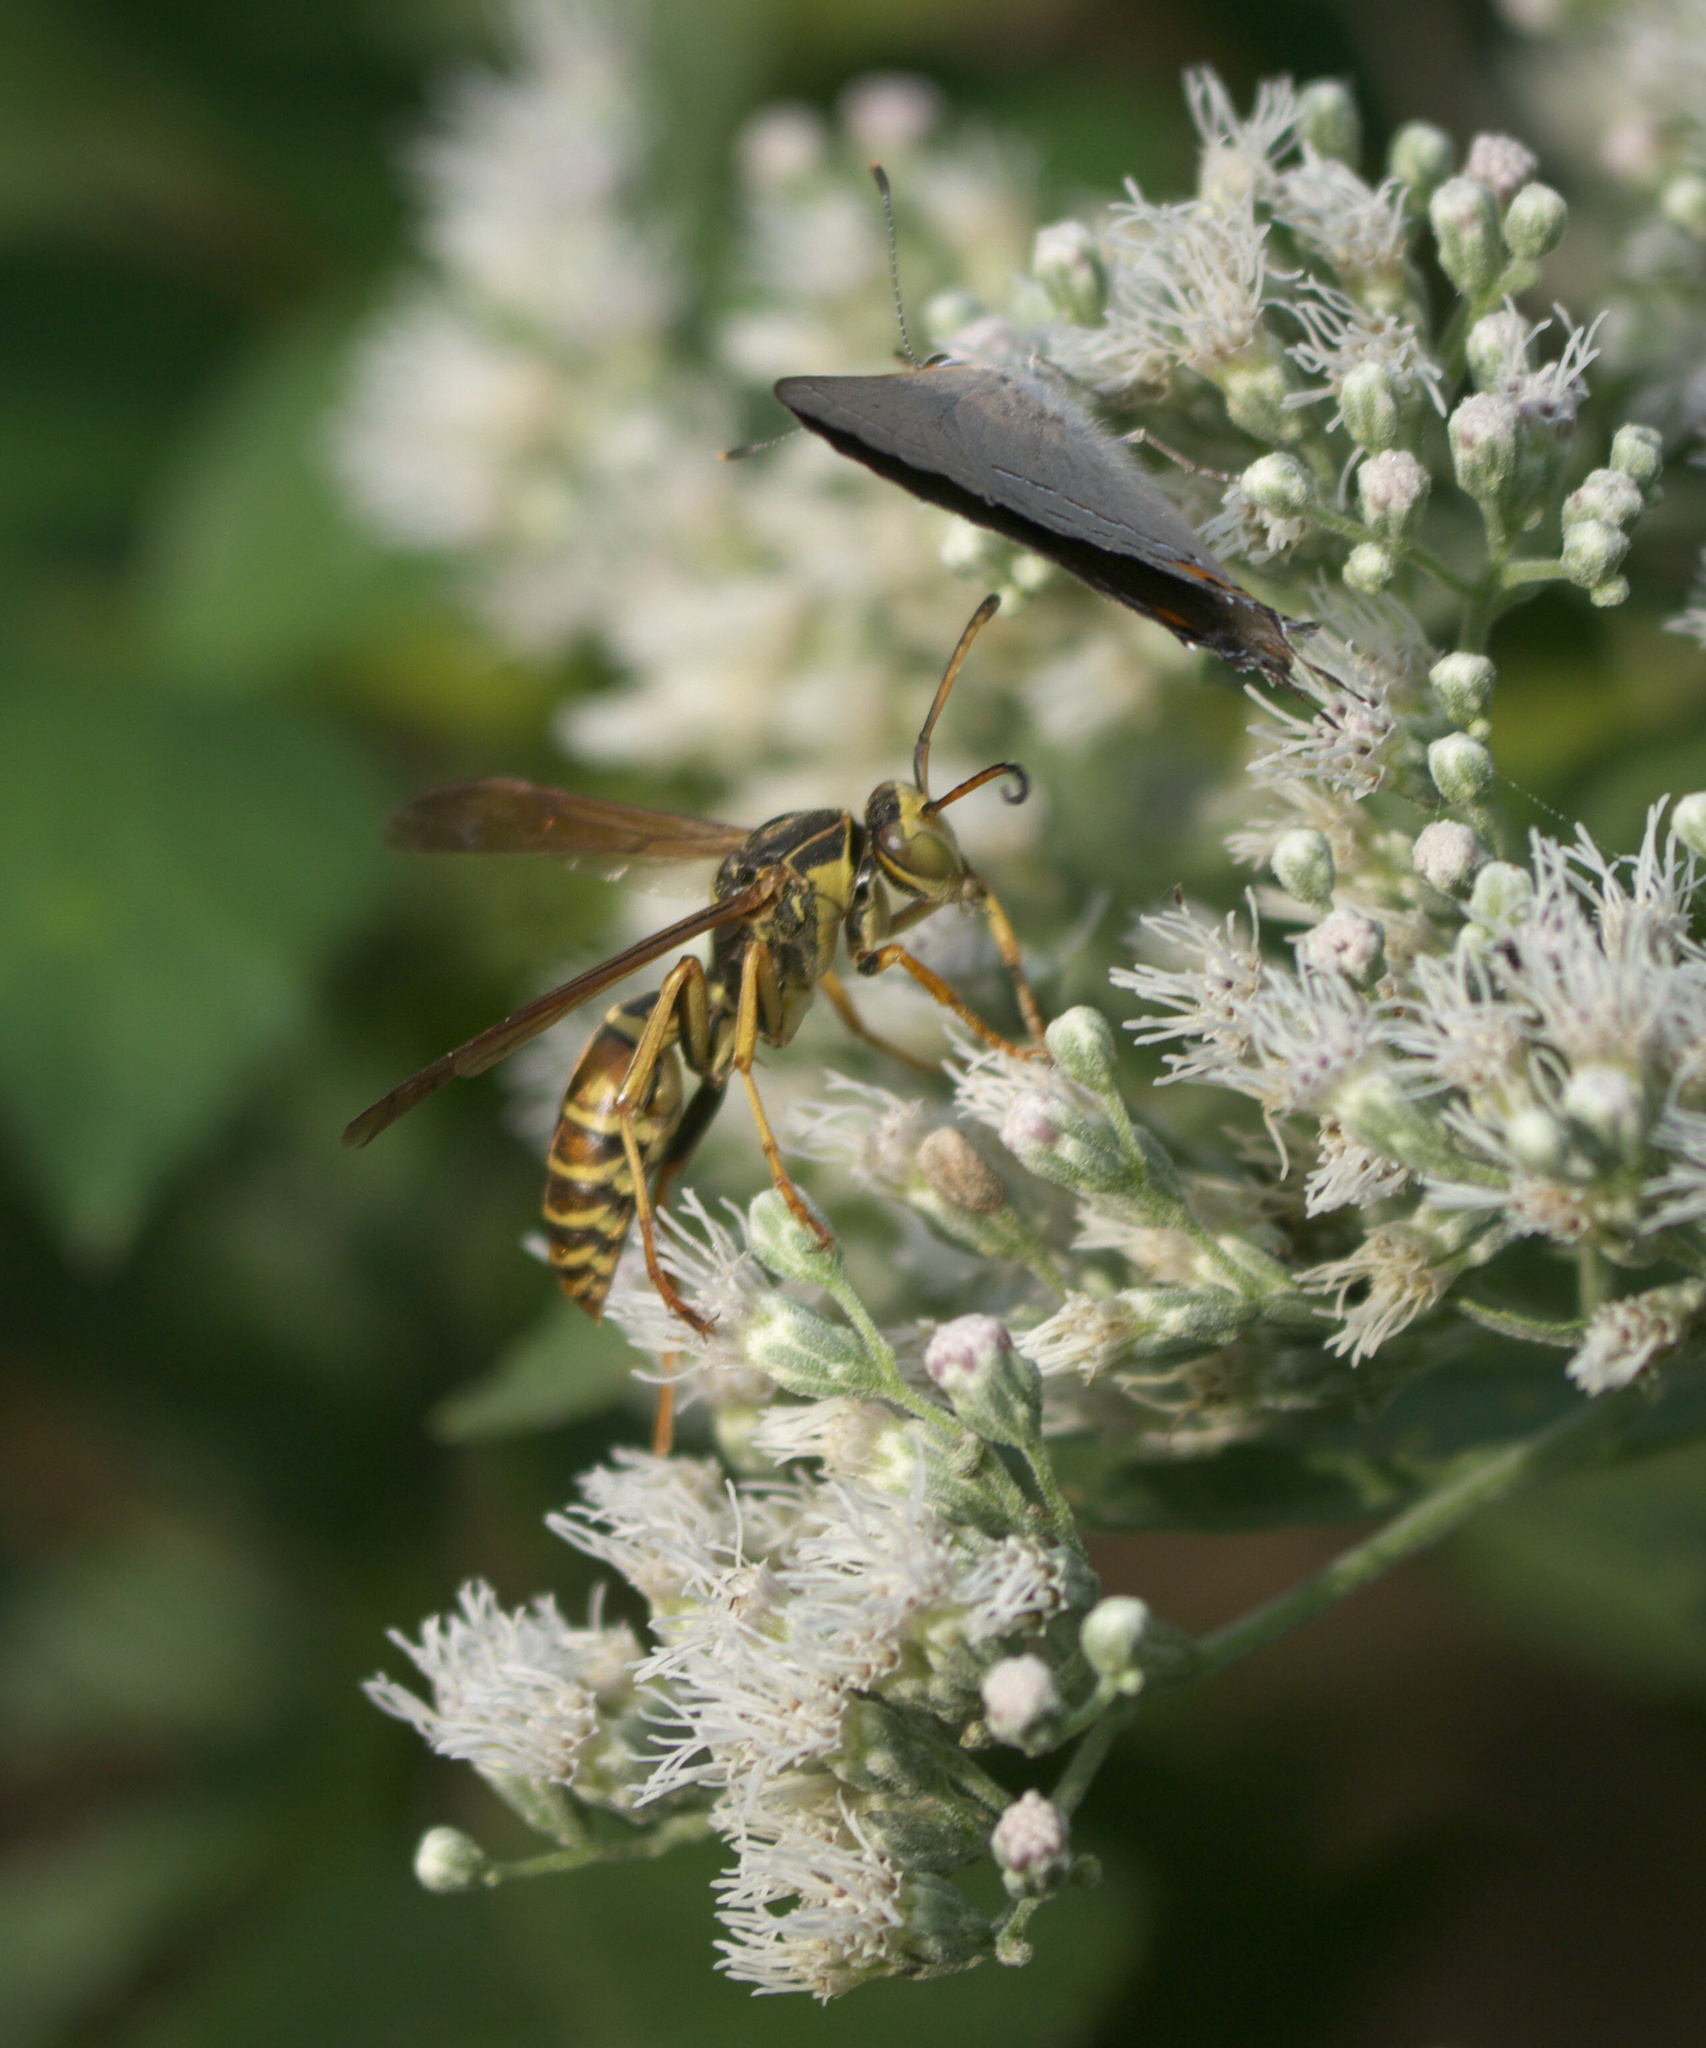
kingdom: Animalia
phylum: Arthropoda
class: Insecta
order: Hymenoptera
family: Eumenidae
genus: Polistes
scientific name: Polistes fuscatus
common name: Dark paper wasp
